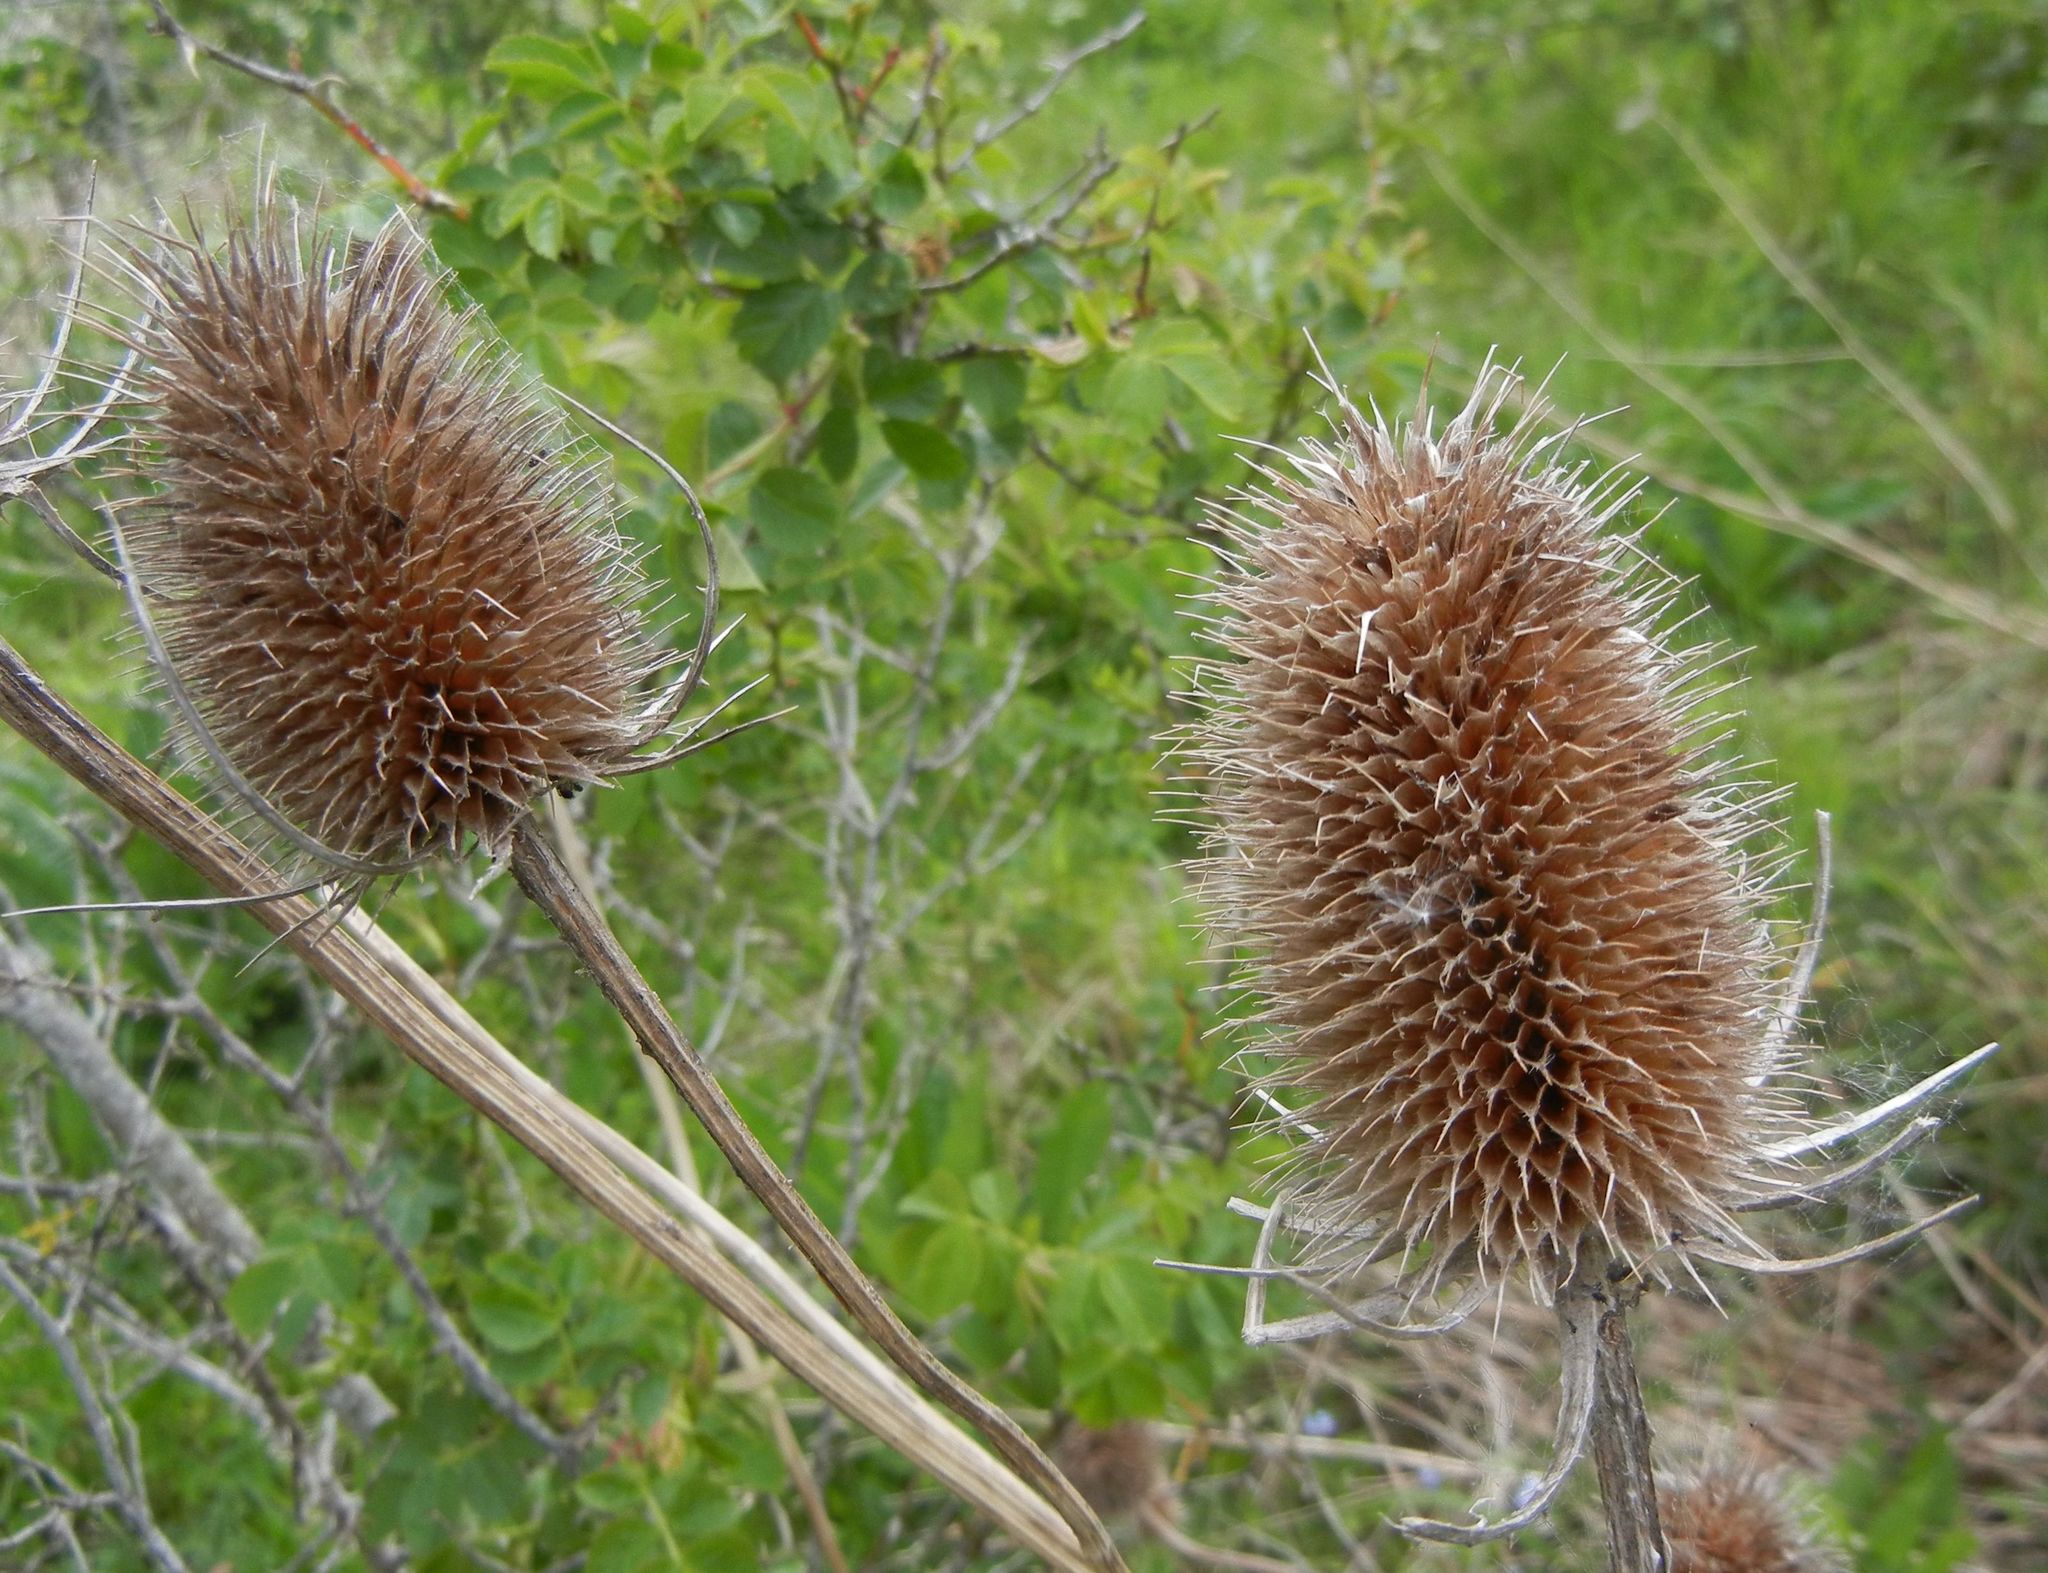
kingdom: Plantae
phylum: Tracheophyta
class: Magnoliopsida
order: Dipsacales
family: Caprifoliaceae
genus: Dipsacus
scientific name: Dipsacus fullonum
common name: Teasel
